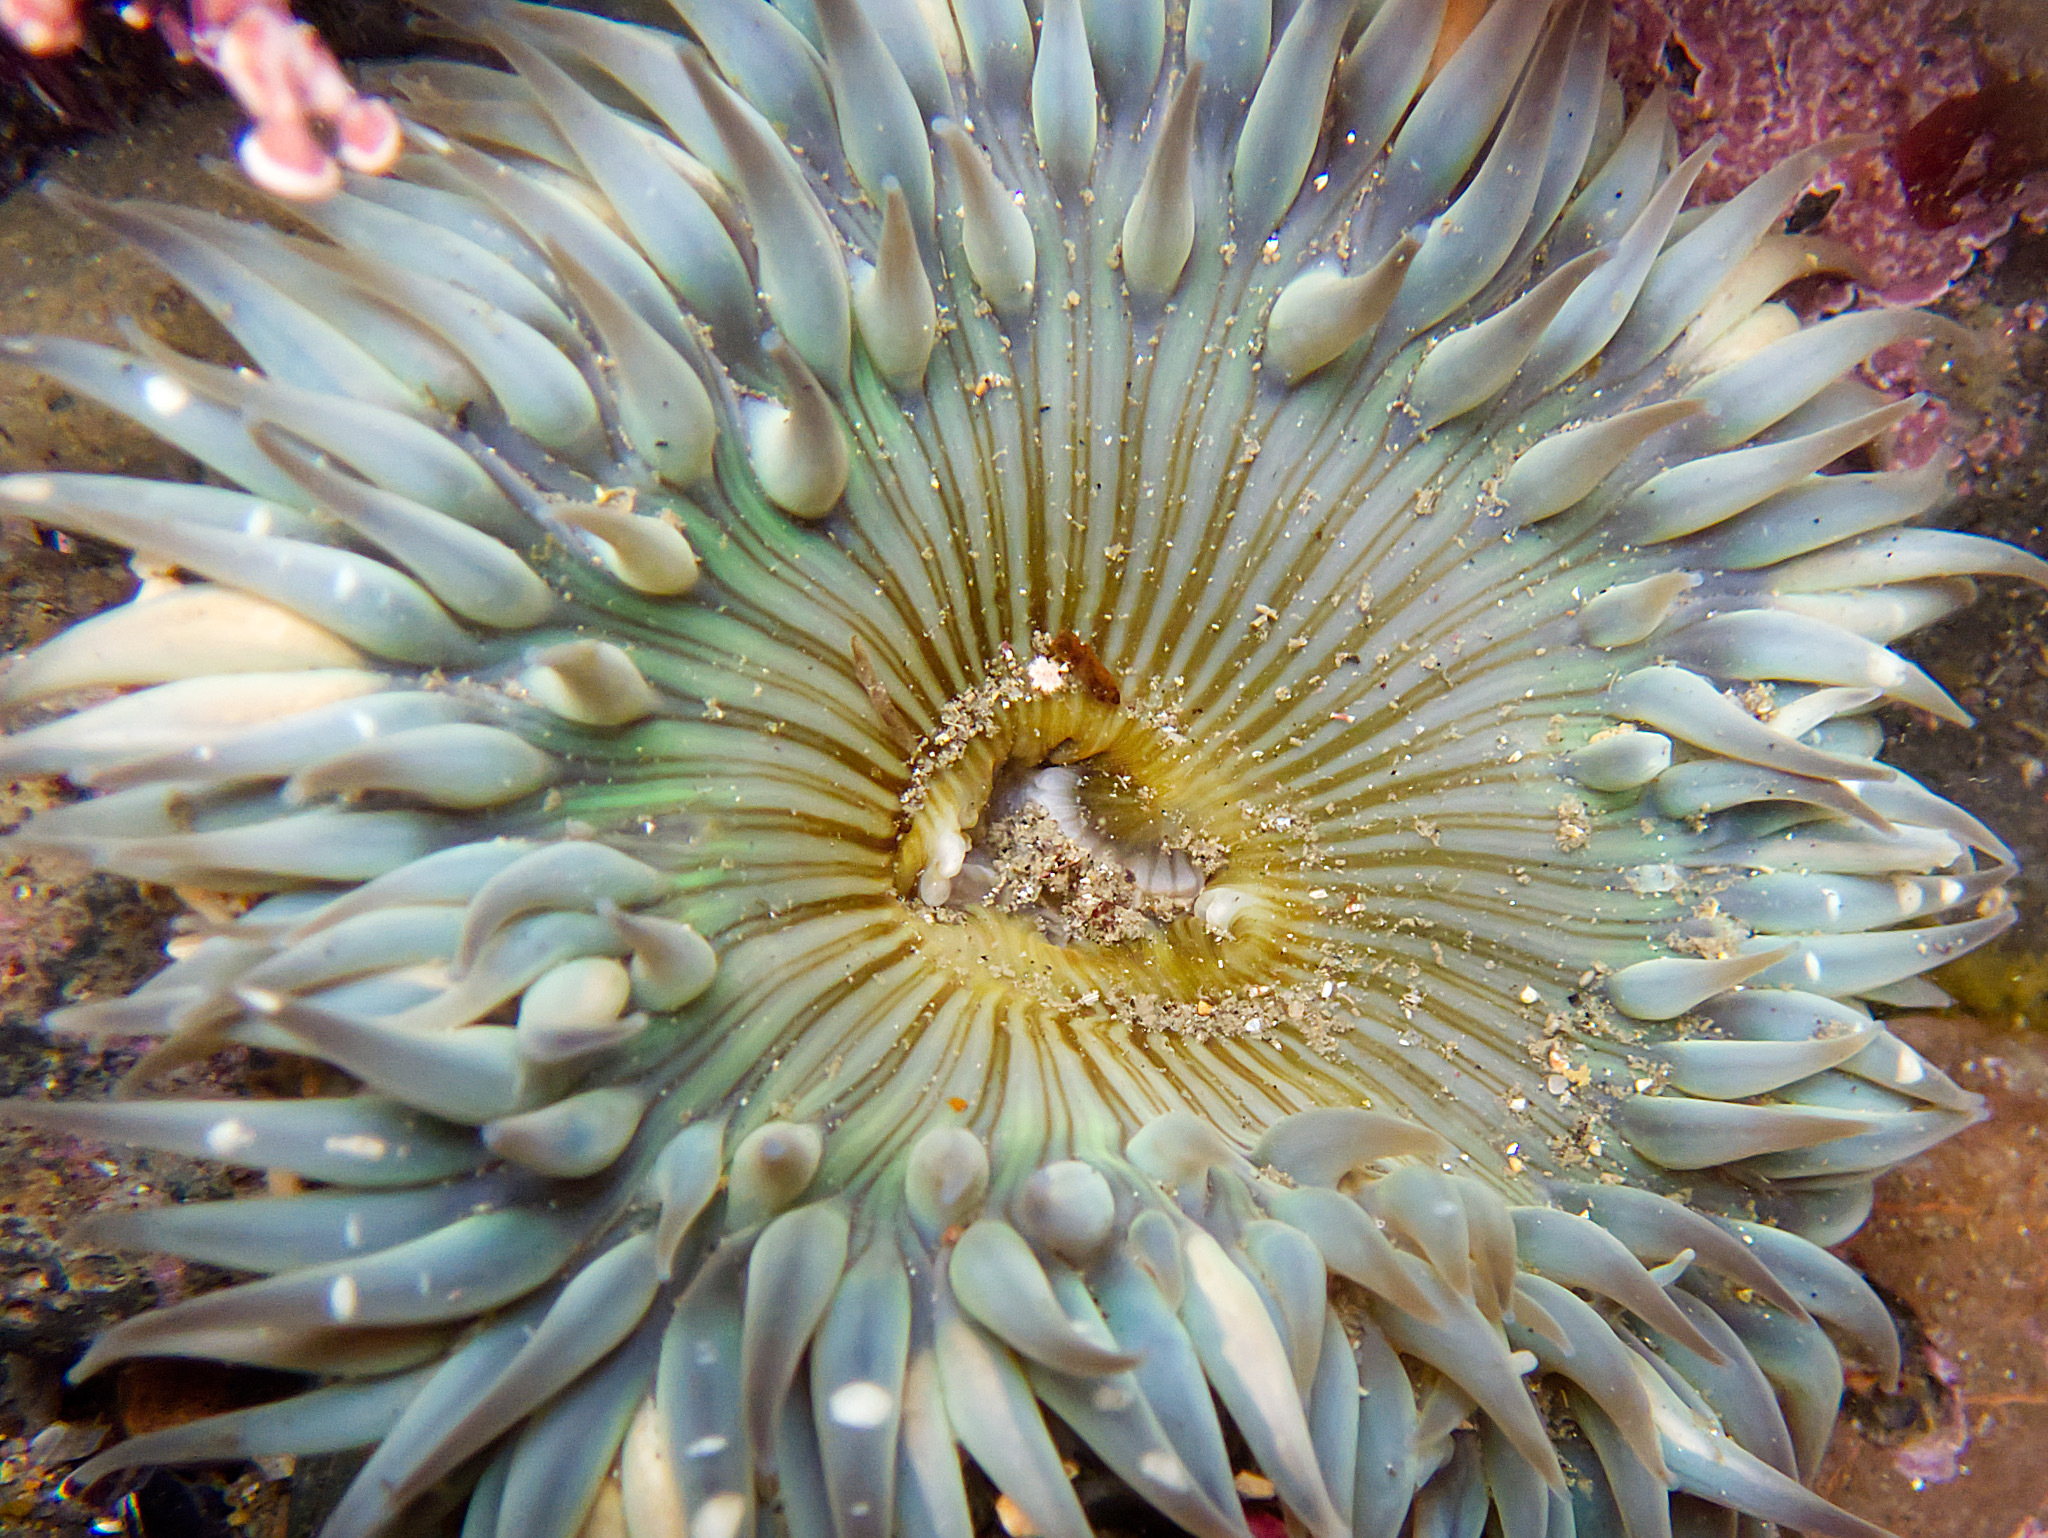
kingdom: Animalia
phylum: Cnidaria
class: Anthozoa
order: Actiniaria
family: Actiniidae
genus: Anthopleura
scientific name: Anthopleura sola
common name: Sun anemone
